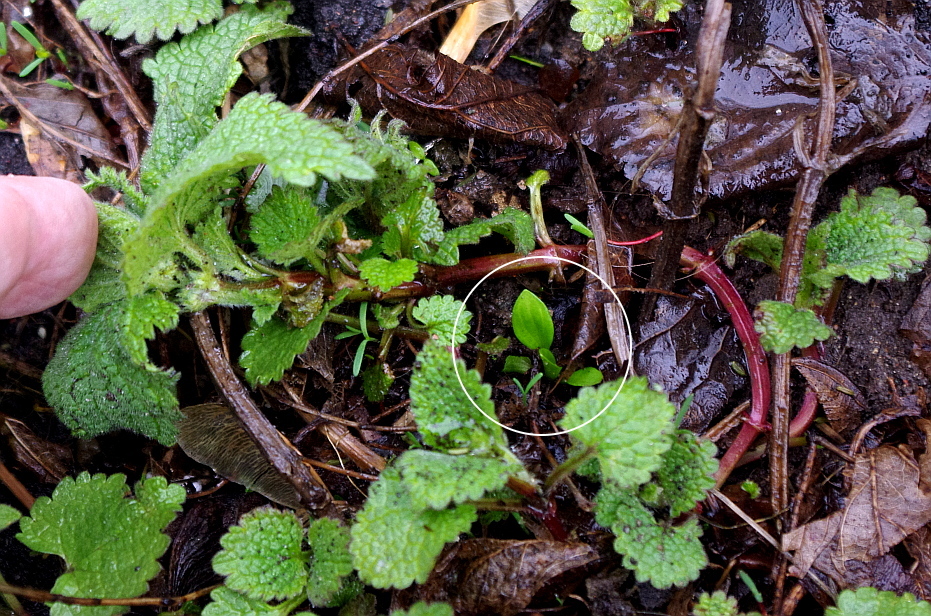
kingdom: Plantae
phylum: Tracheophyta
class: Magnoliopsida
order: Lamiales
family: Plantaginaceae
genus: Plantago
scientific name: Plantago major
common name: Common plantain
